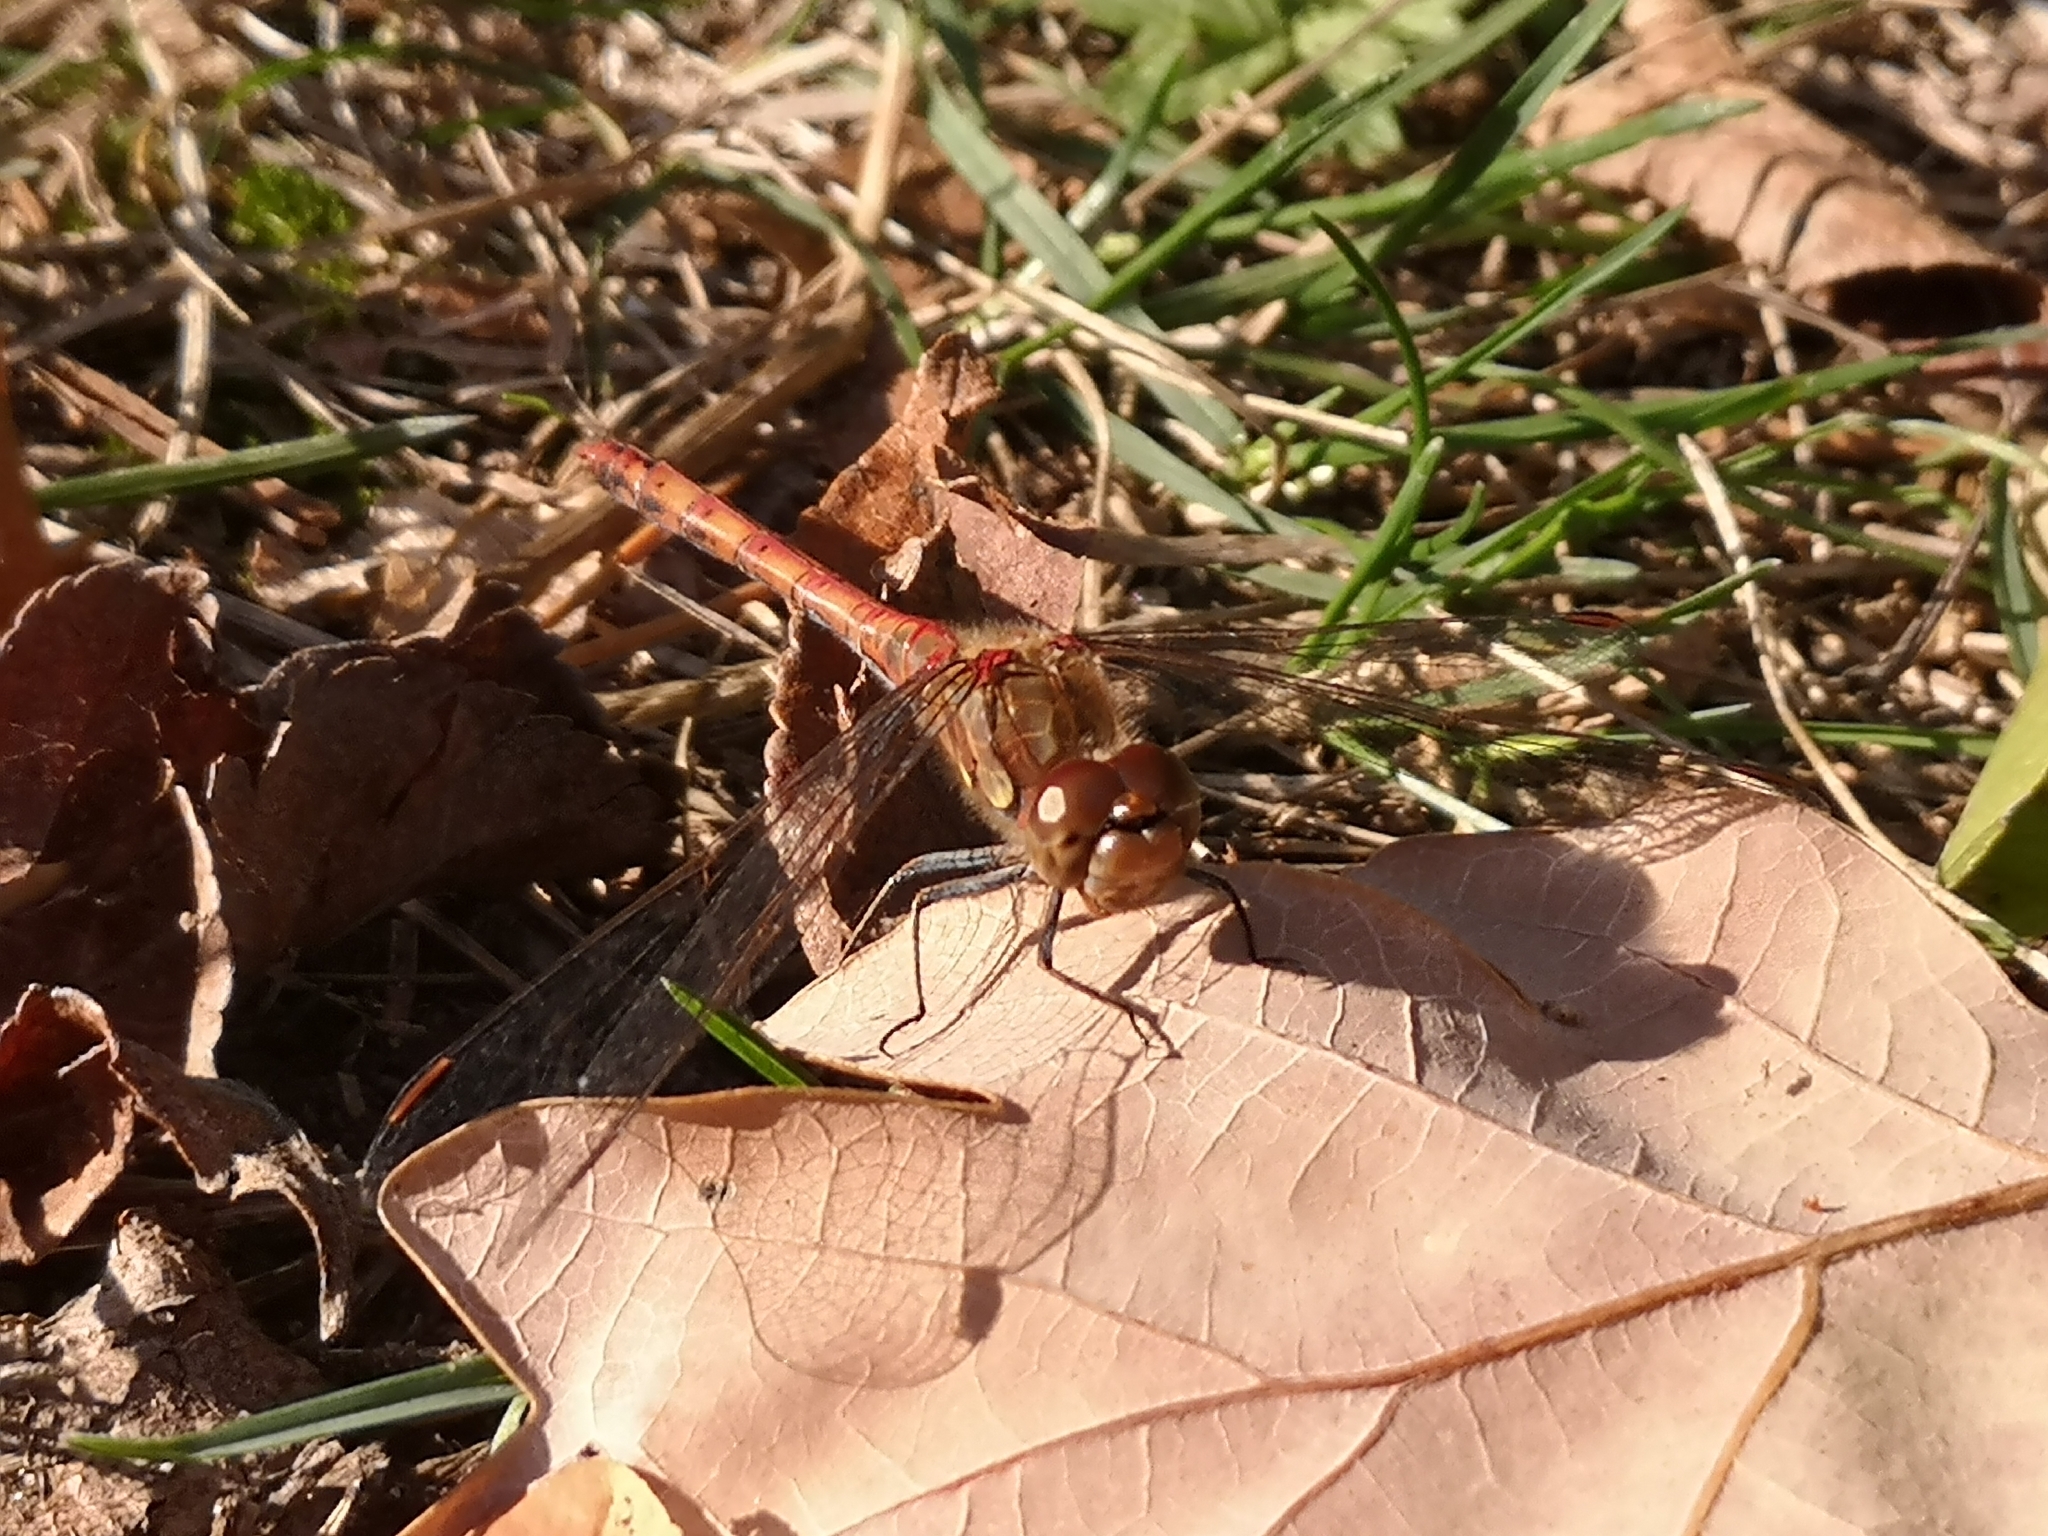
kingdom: Animalia
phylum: Arthropoda
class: Insecta
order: Odonata
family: Libellulidae
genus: Sympetrum
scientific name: Sympetrum striolatum
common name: Common darter
